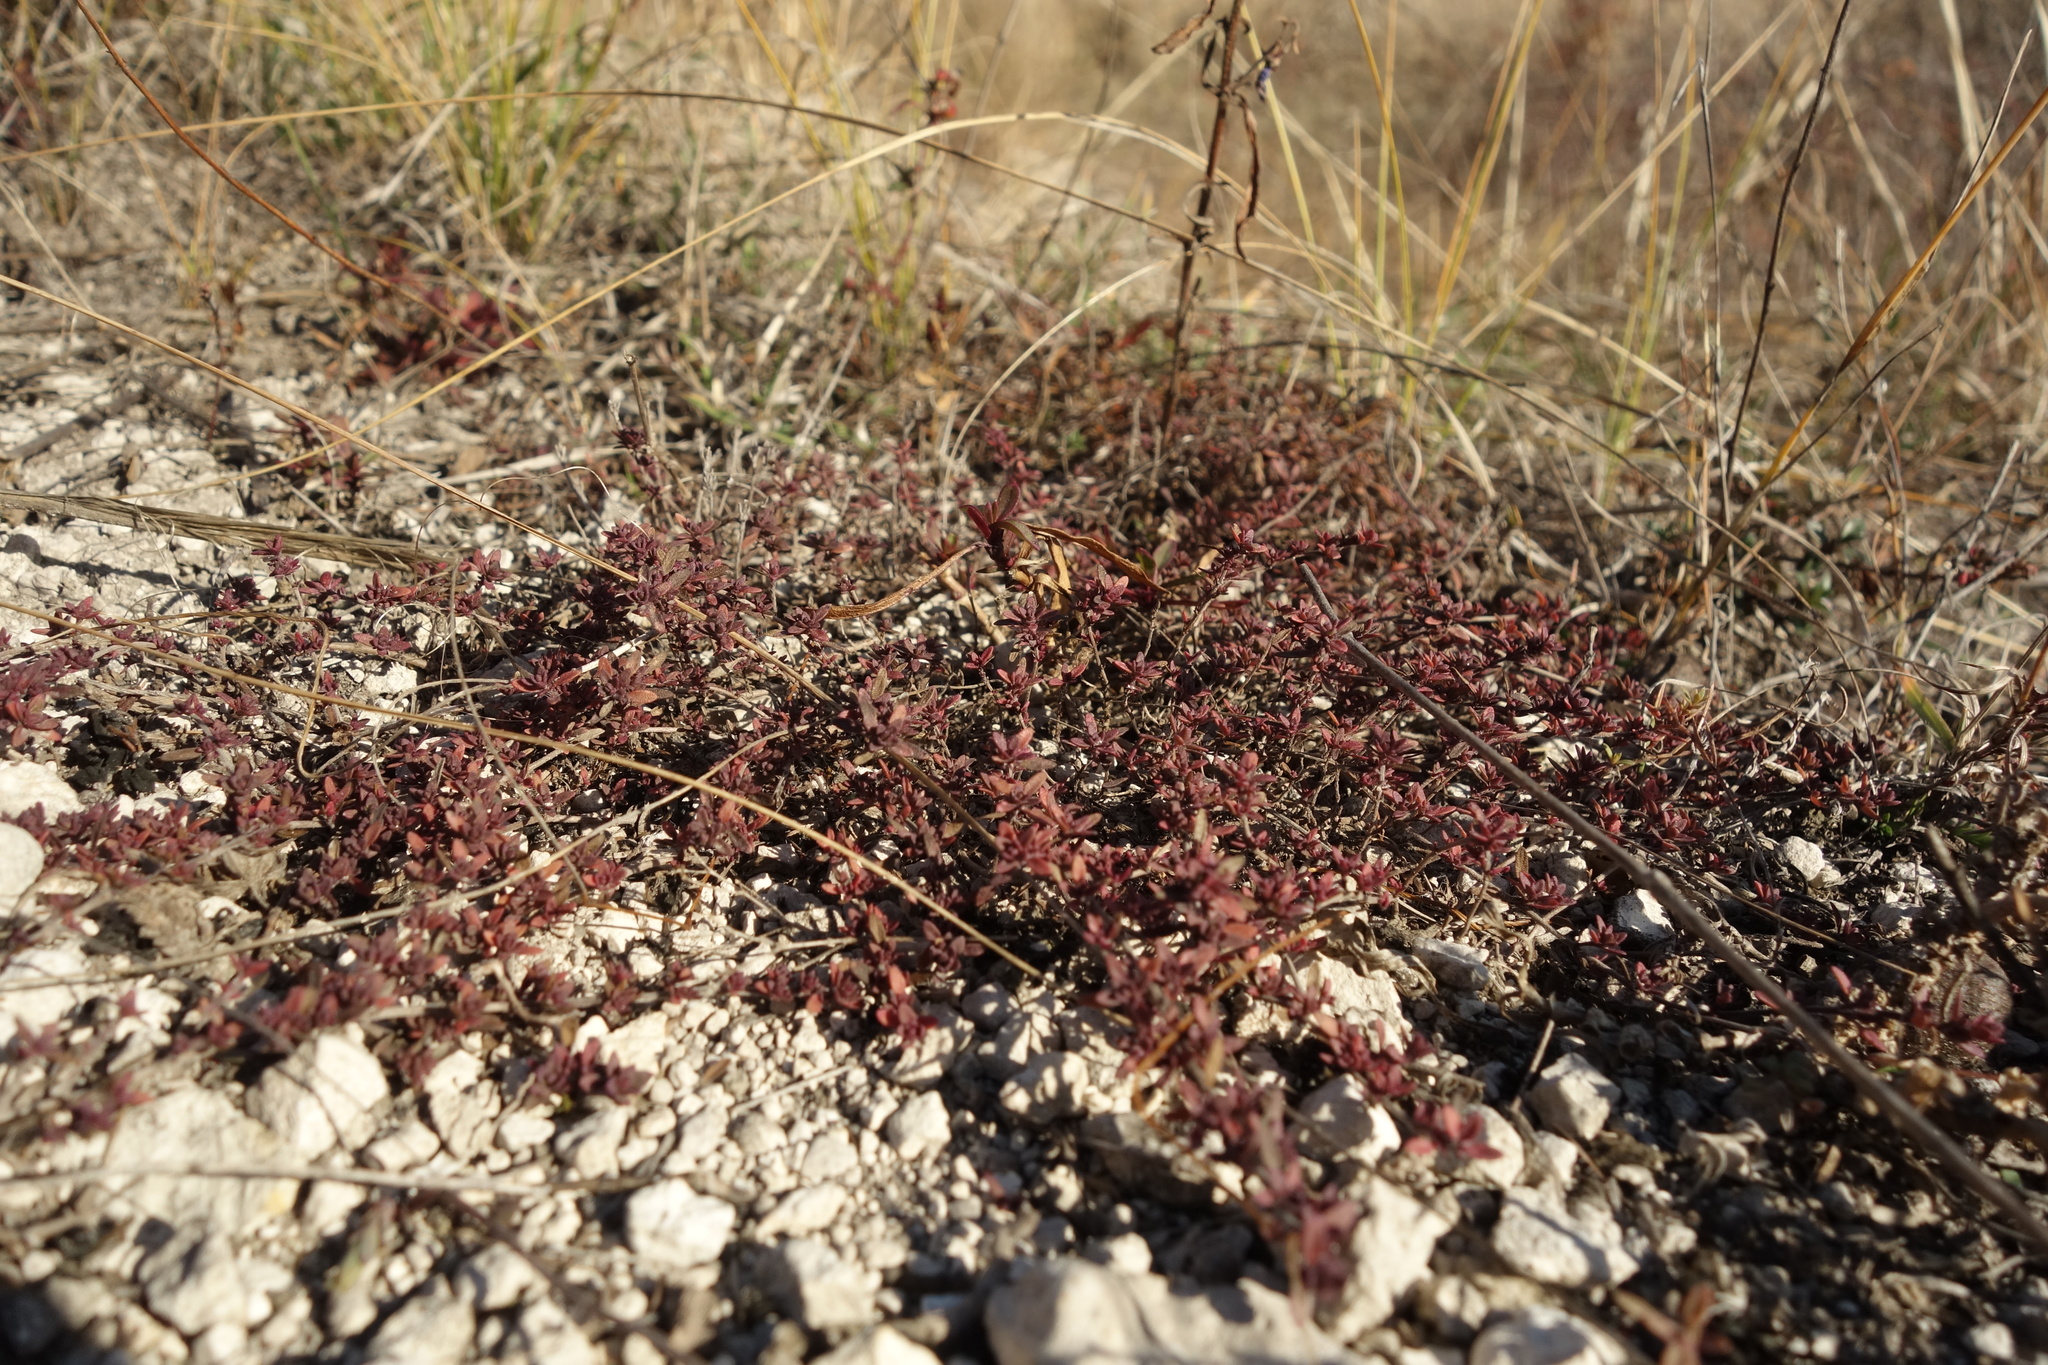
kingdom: Plantae
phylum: Tracheophyta
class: Magnoliopsida
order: Lamiales
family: Lamiaceae
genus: Thymus
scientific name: Thymus calcareus
